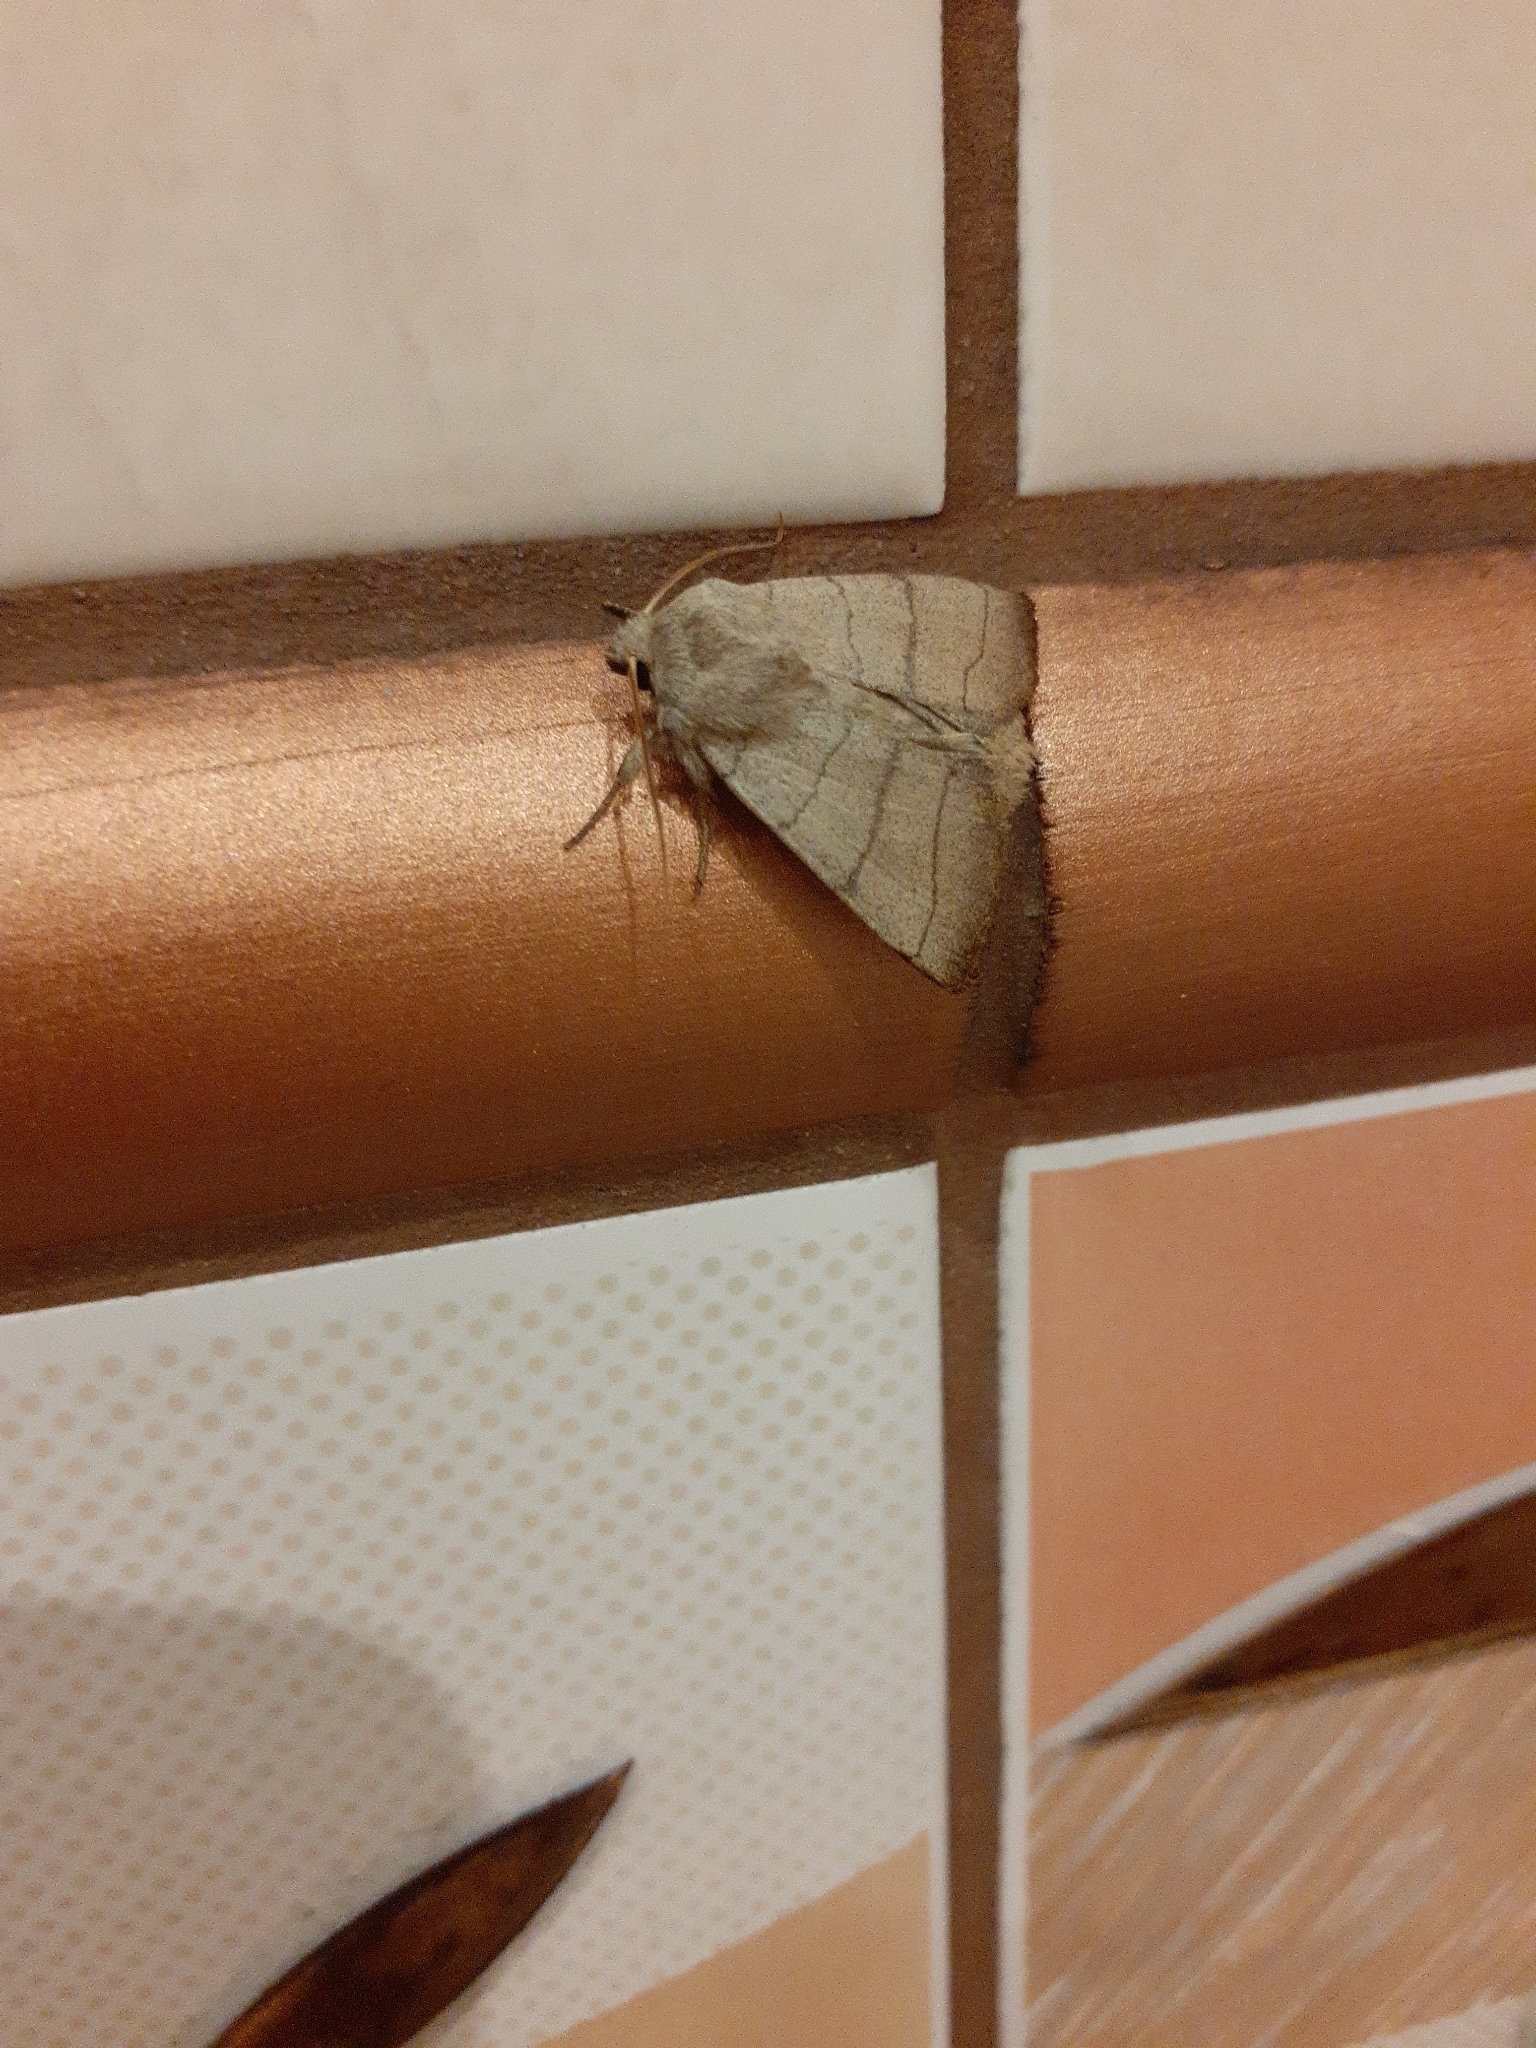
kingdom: Animalia
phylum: Arthropoda
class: Insecta
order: Lepidoptera
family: Noctuidae
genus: Charanyca
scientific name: Charanyca trigrammica
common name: Treble lines
